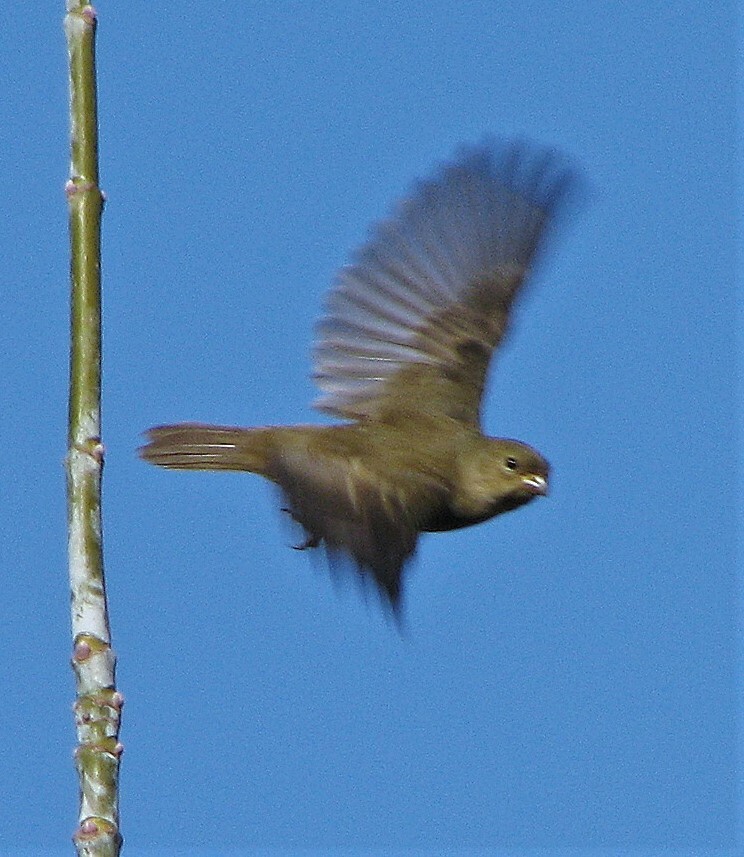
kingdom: Animalia
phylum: Chordata
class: Aves
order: Passeriformes
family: Thraupidae
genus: Sporophila
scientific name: Sporophila caerulescens
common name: Double-collared seedeater
